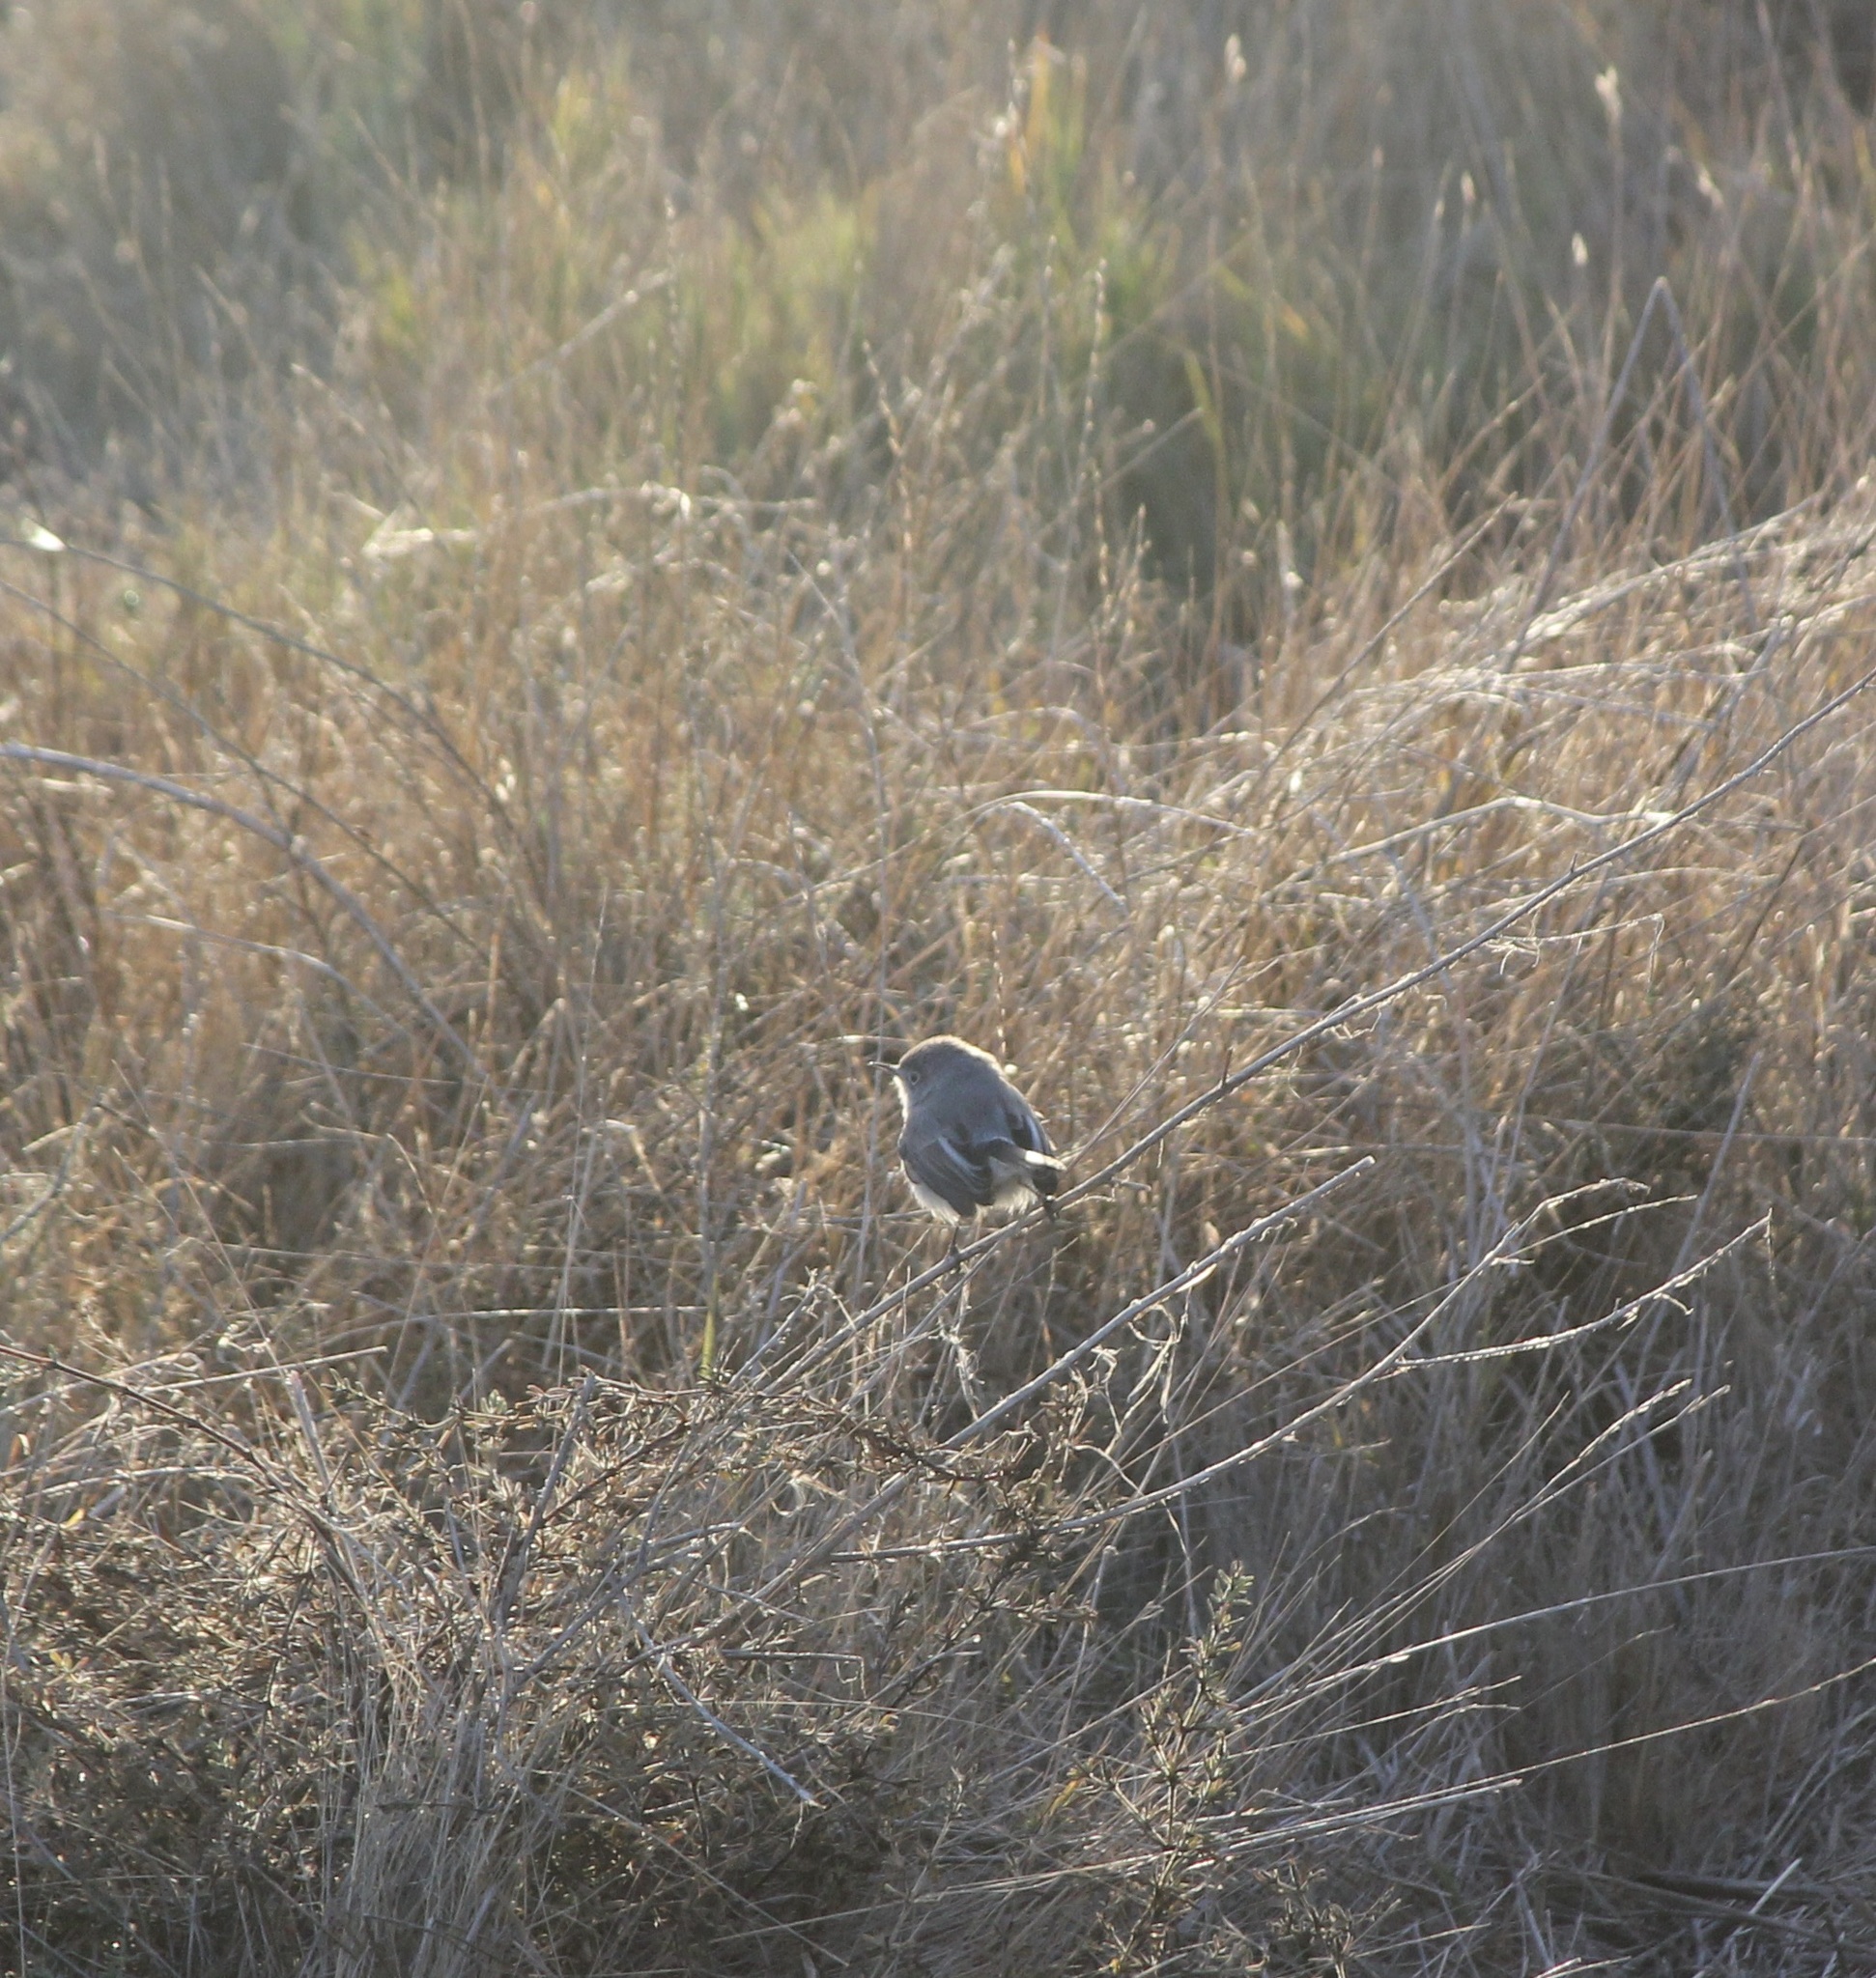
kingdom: Animalia
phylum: Chordata
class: Aves
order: Passeriformes
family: Polioptilidae
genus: Polioptila
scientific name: Polioptila caerulea
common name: Blue-gray gnatcatcher
